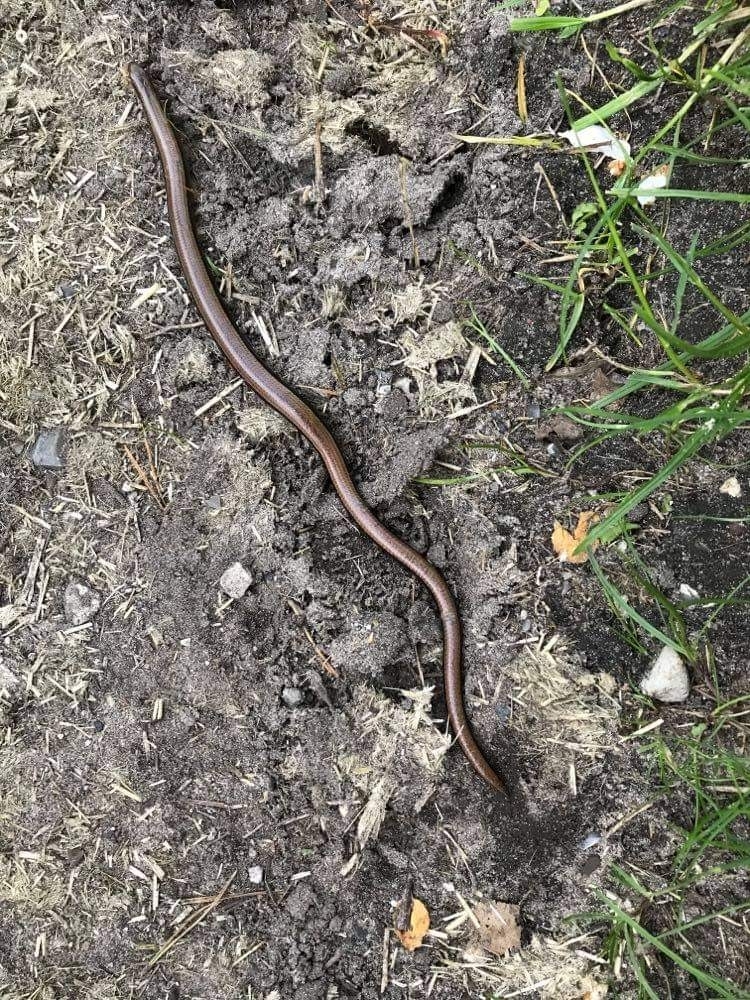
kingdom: Animalia
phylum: Chordata
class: Squamata
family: Anguidae
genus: Anguis
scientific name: Anguis fragilis
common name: Slow worm
